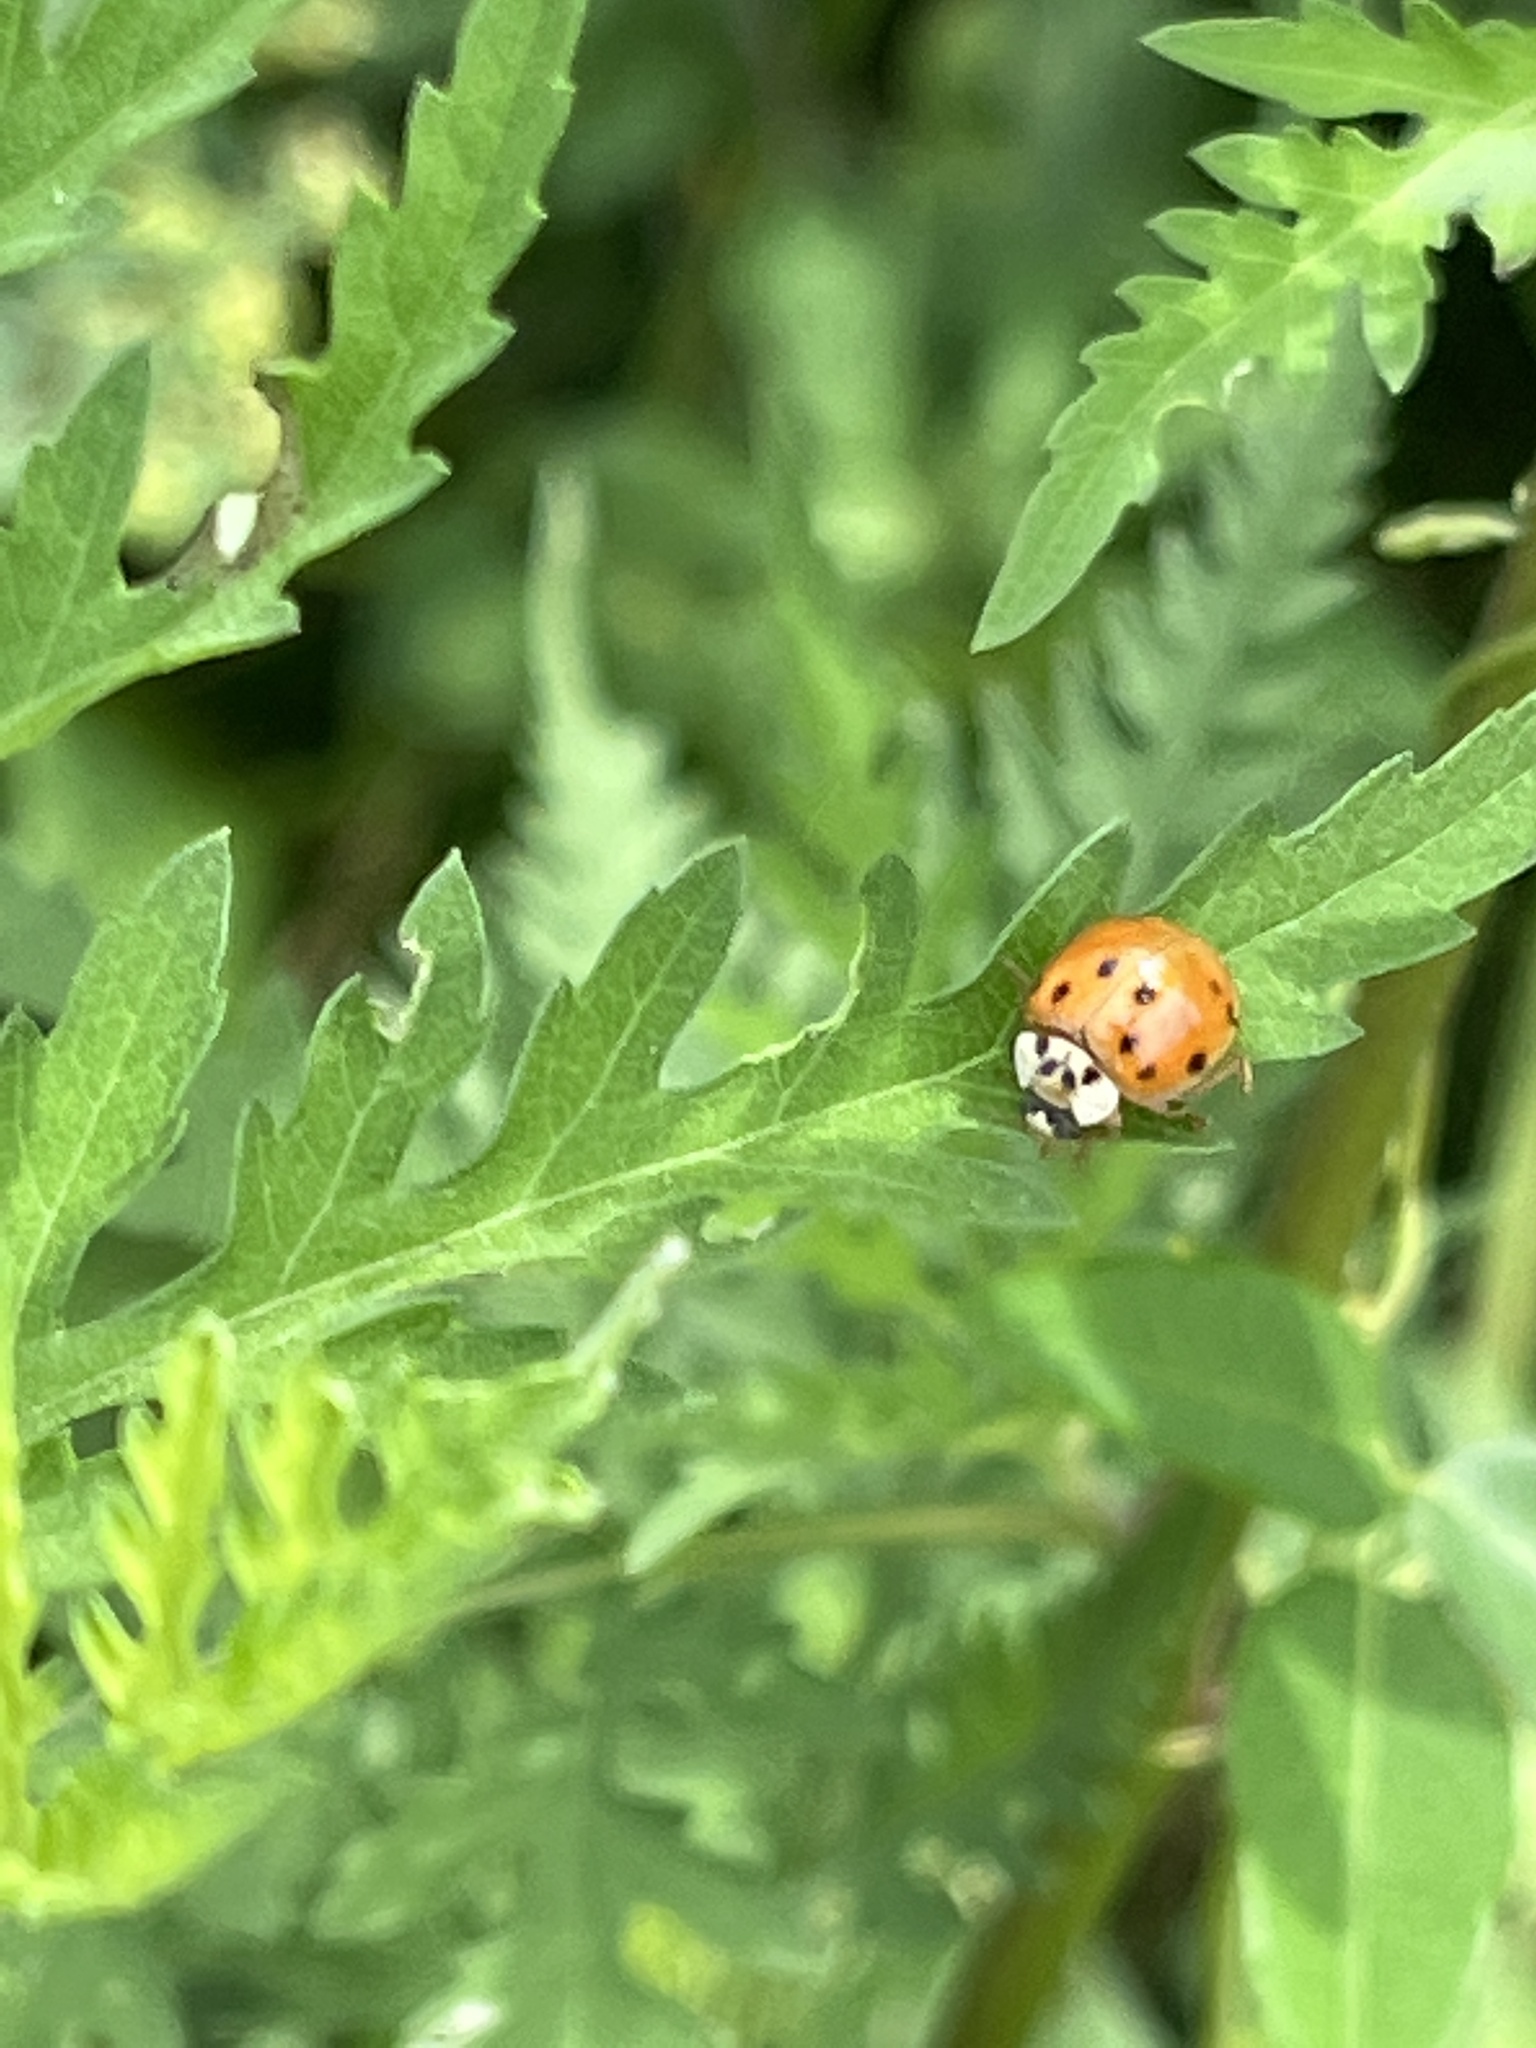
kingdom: Animalia
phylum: Arthropoda
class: Insecta
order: Coleoptera
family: Coccinellidae
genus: Harmonia
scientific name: Harmonia axyridis
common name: Harlequin ladybird
